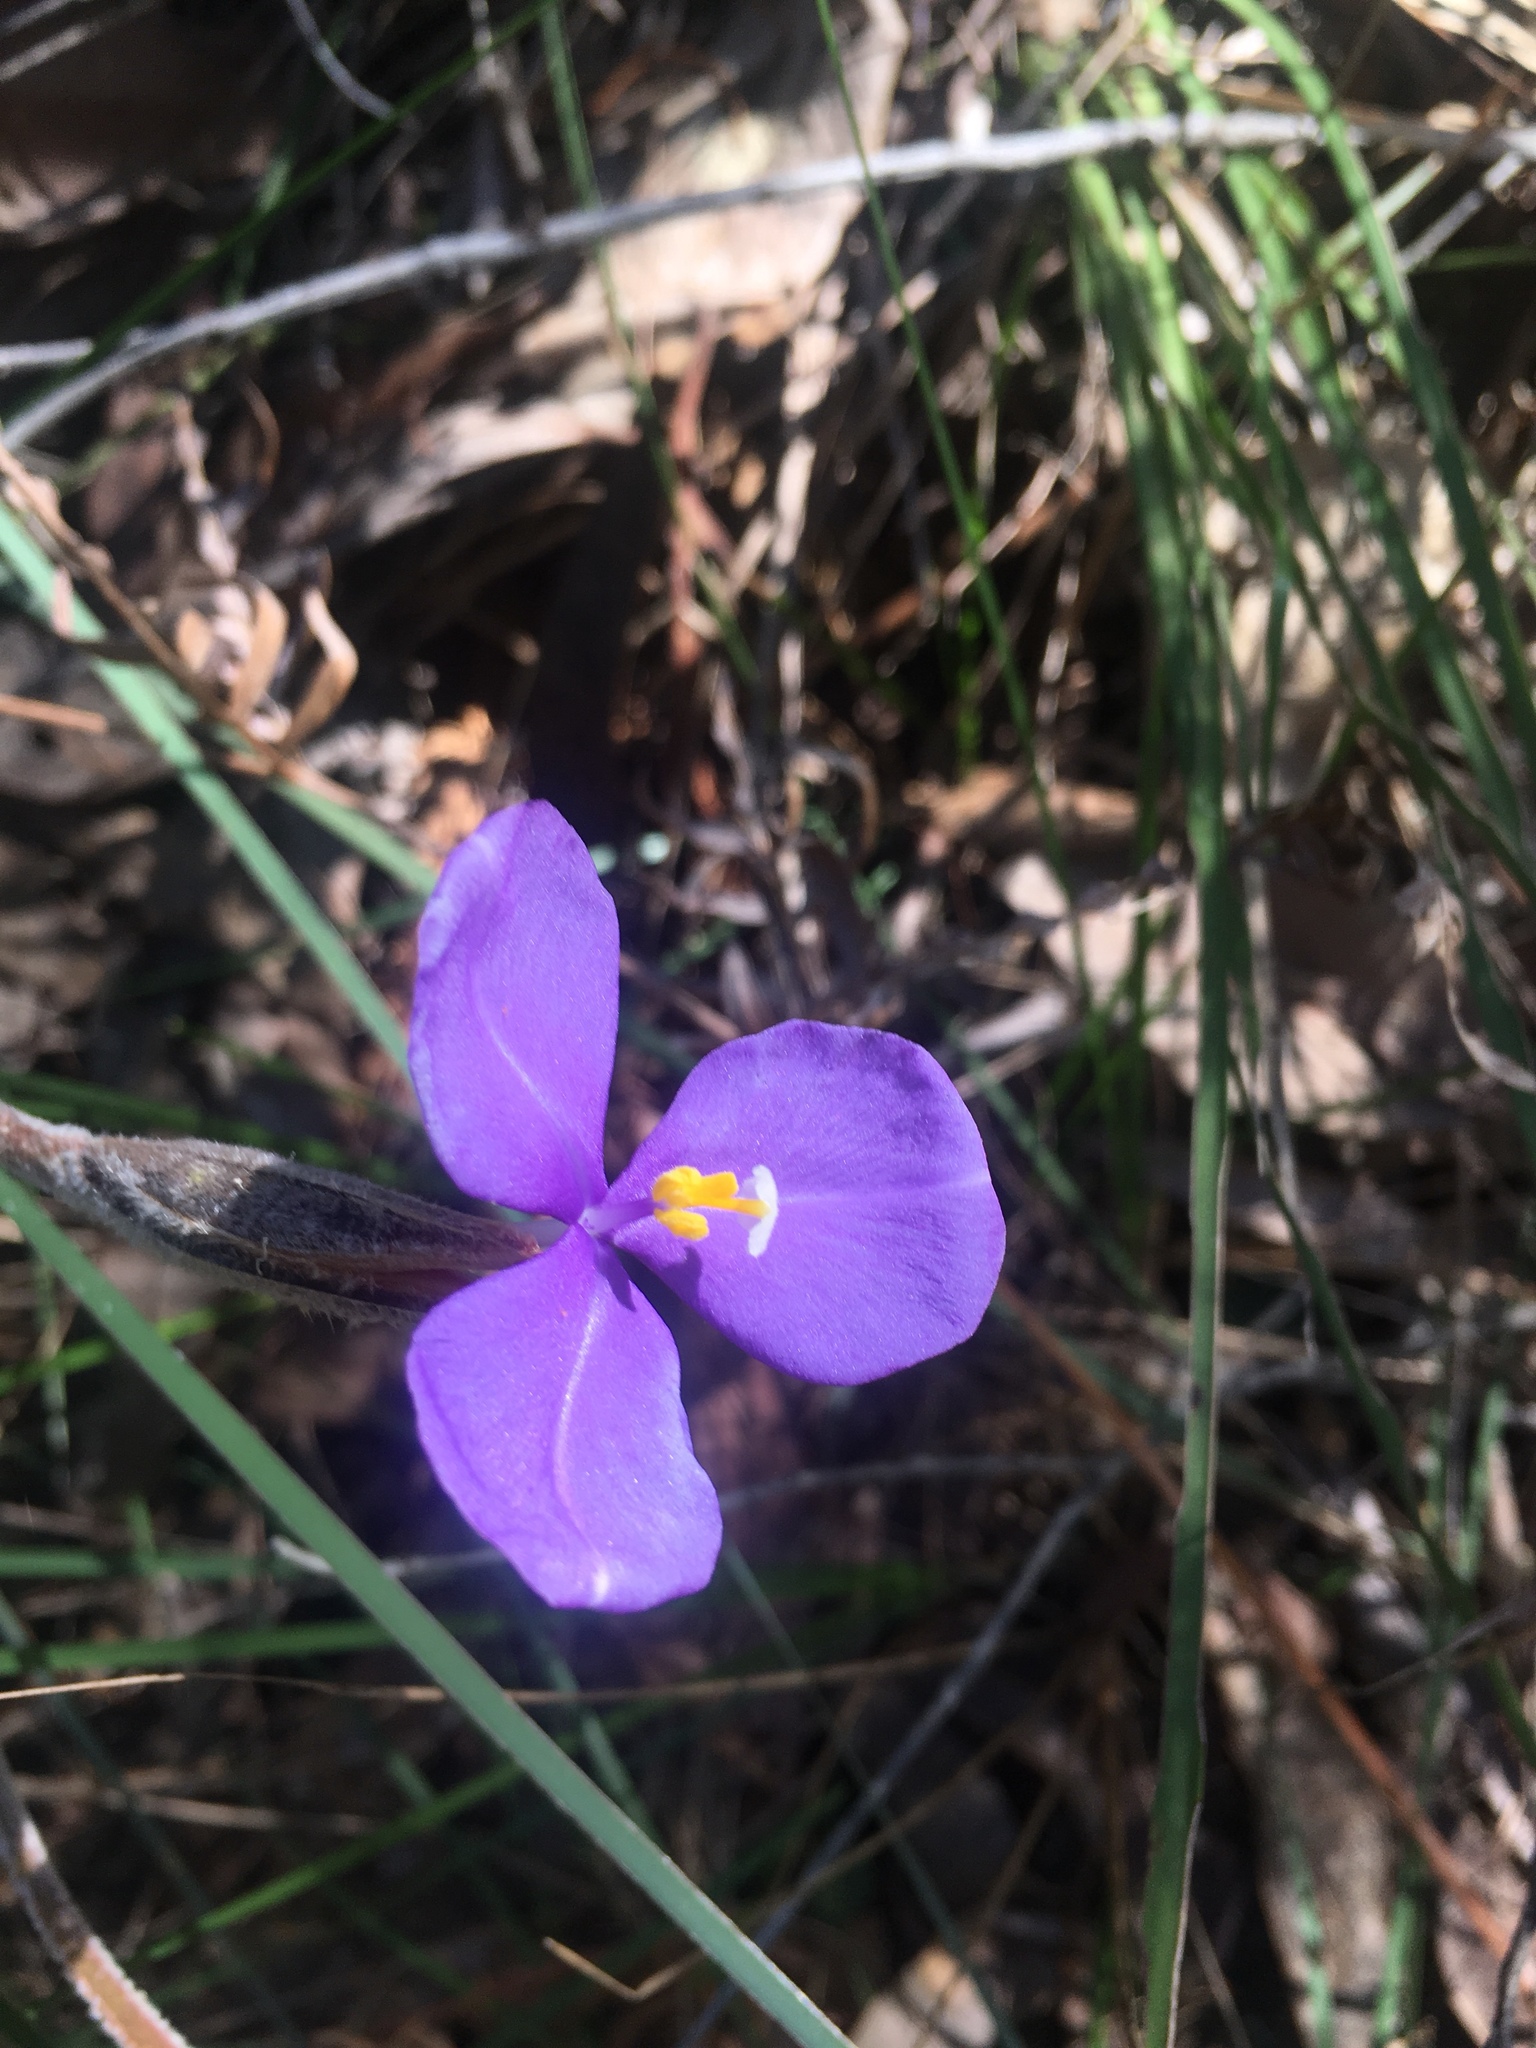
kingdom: Plantae
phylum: Tracheophyta
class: Liliopsida
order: Asparagales
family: Iridaceae
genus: Patersonia
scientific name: Patersonia sericea
